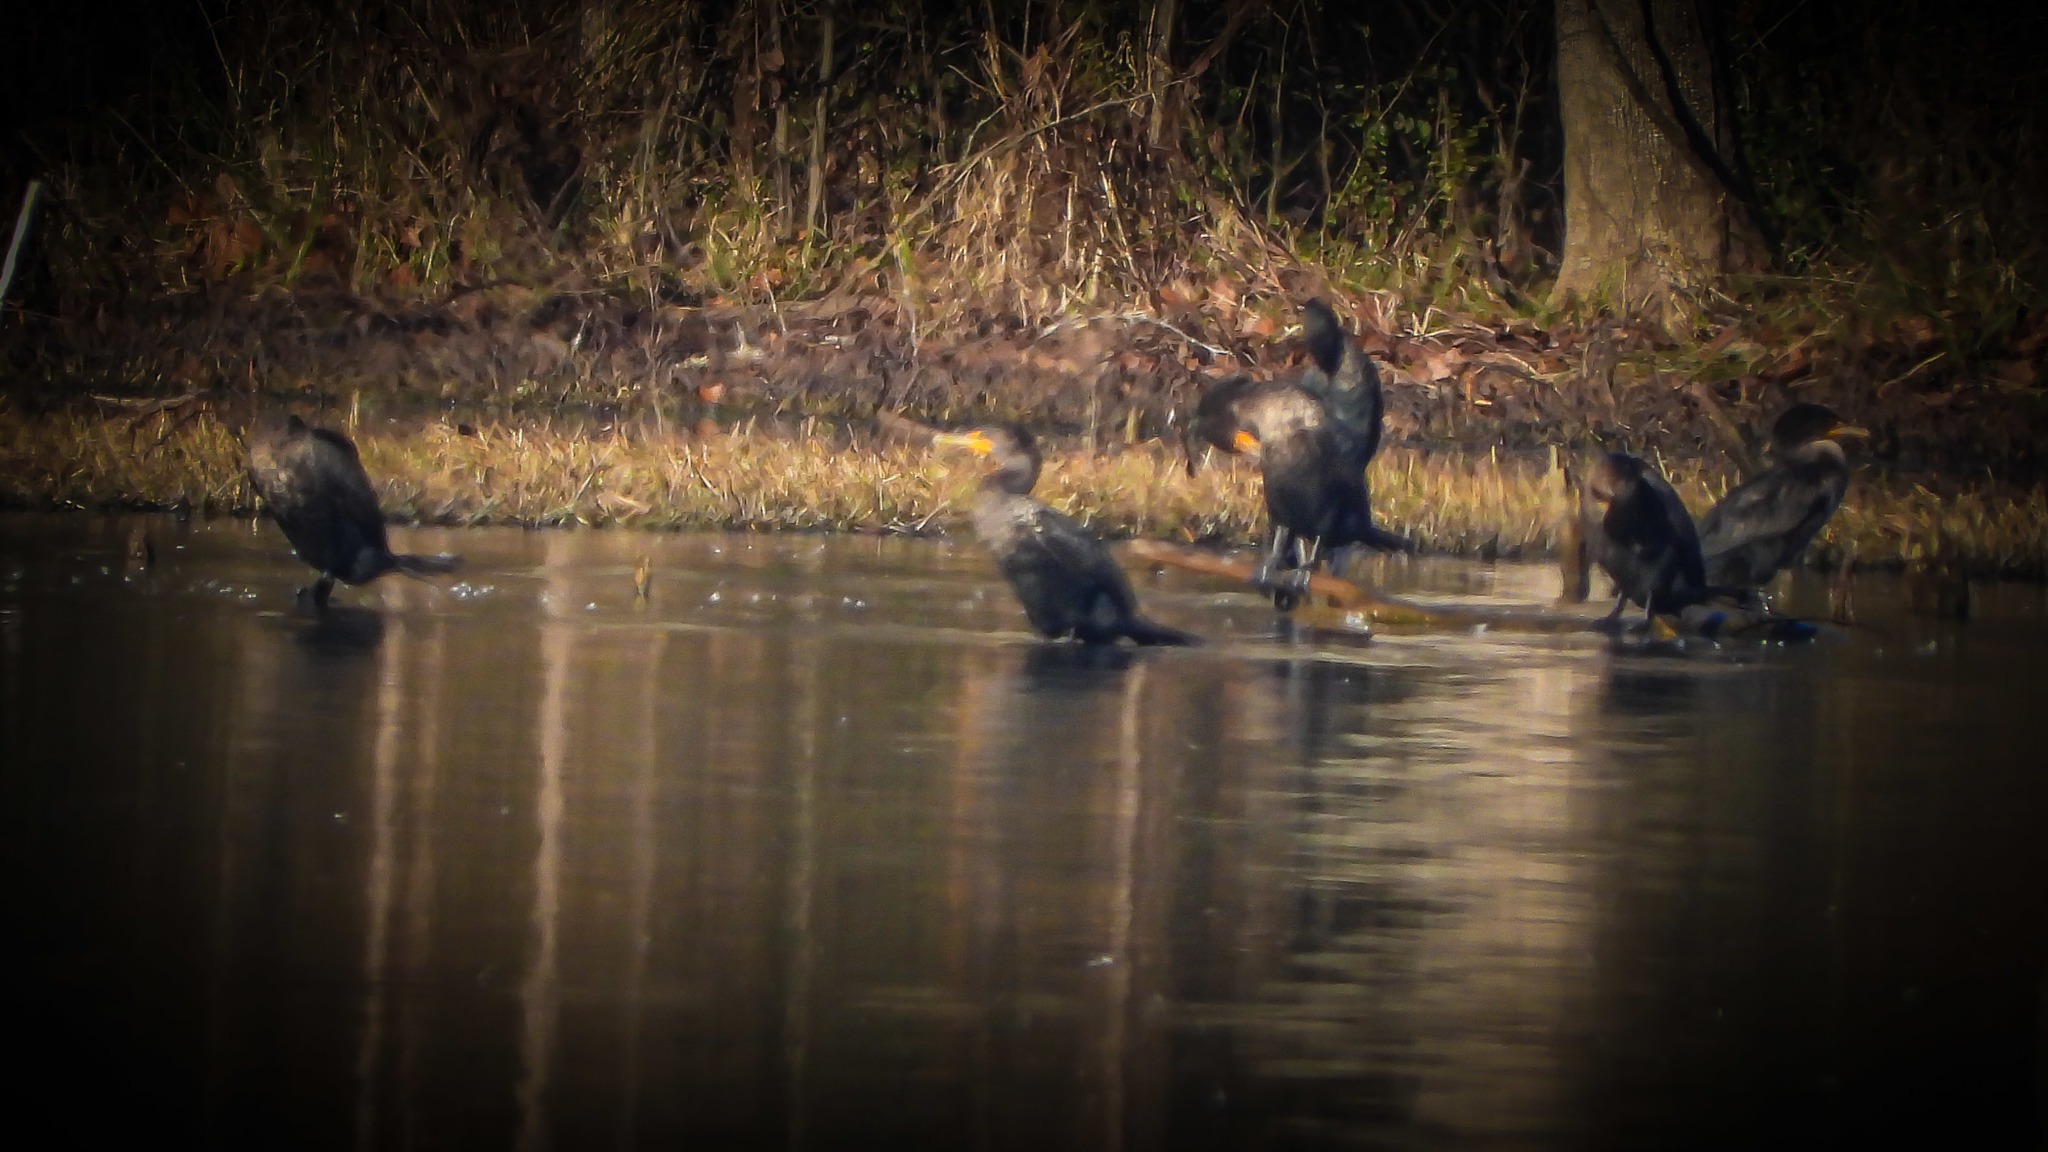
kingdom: Animalia
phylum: Chordata
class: Aves
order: Suliformes
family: Phalacrocoracidae
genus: Phalacrocorax
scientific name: Phalacrocorax auritus
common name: Double-crested cormorant
